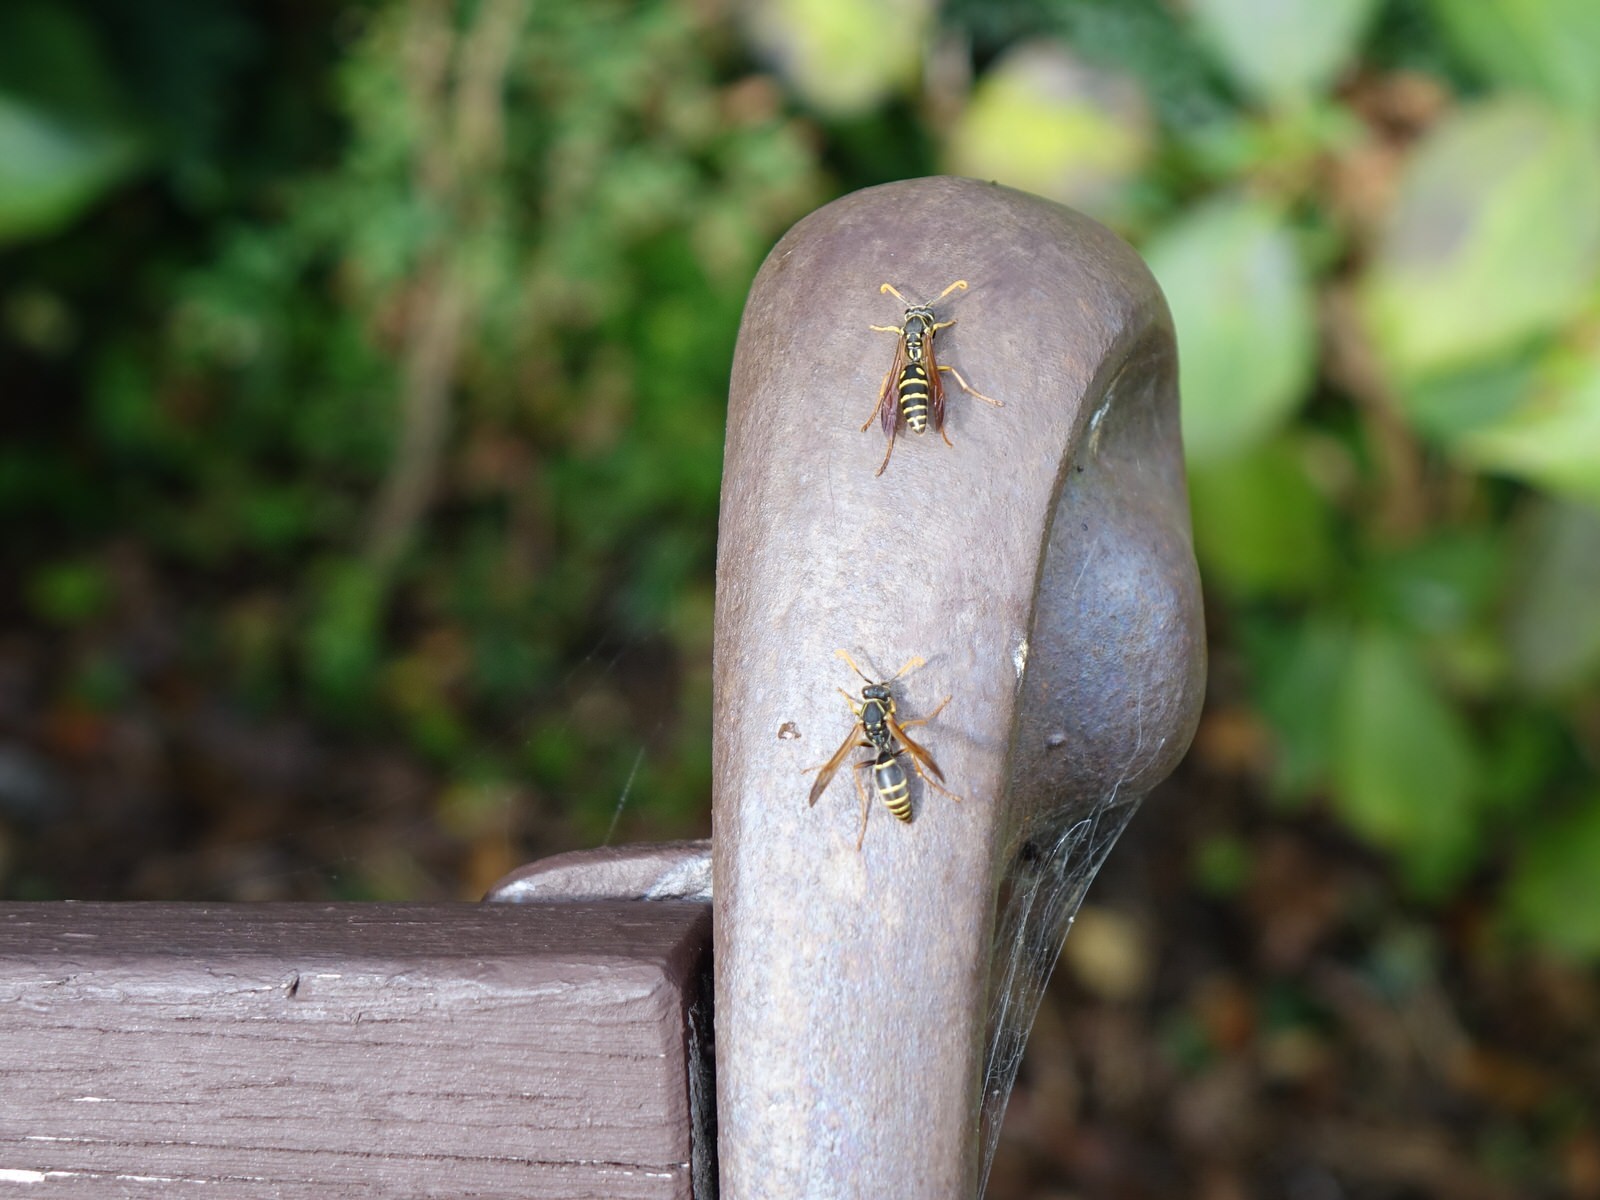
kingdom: Animalia
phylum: Arthropoda
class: Insecta
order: Hymenoptera
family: Eumenidae
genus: Polistes
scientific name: Polistes chinensis
